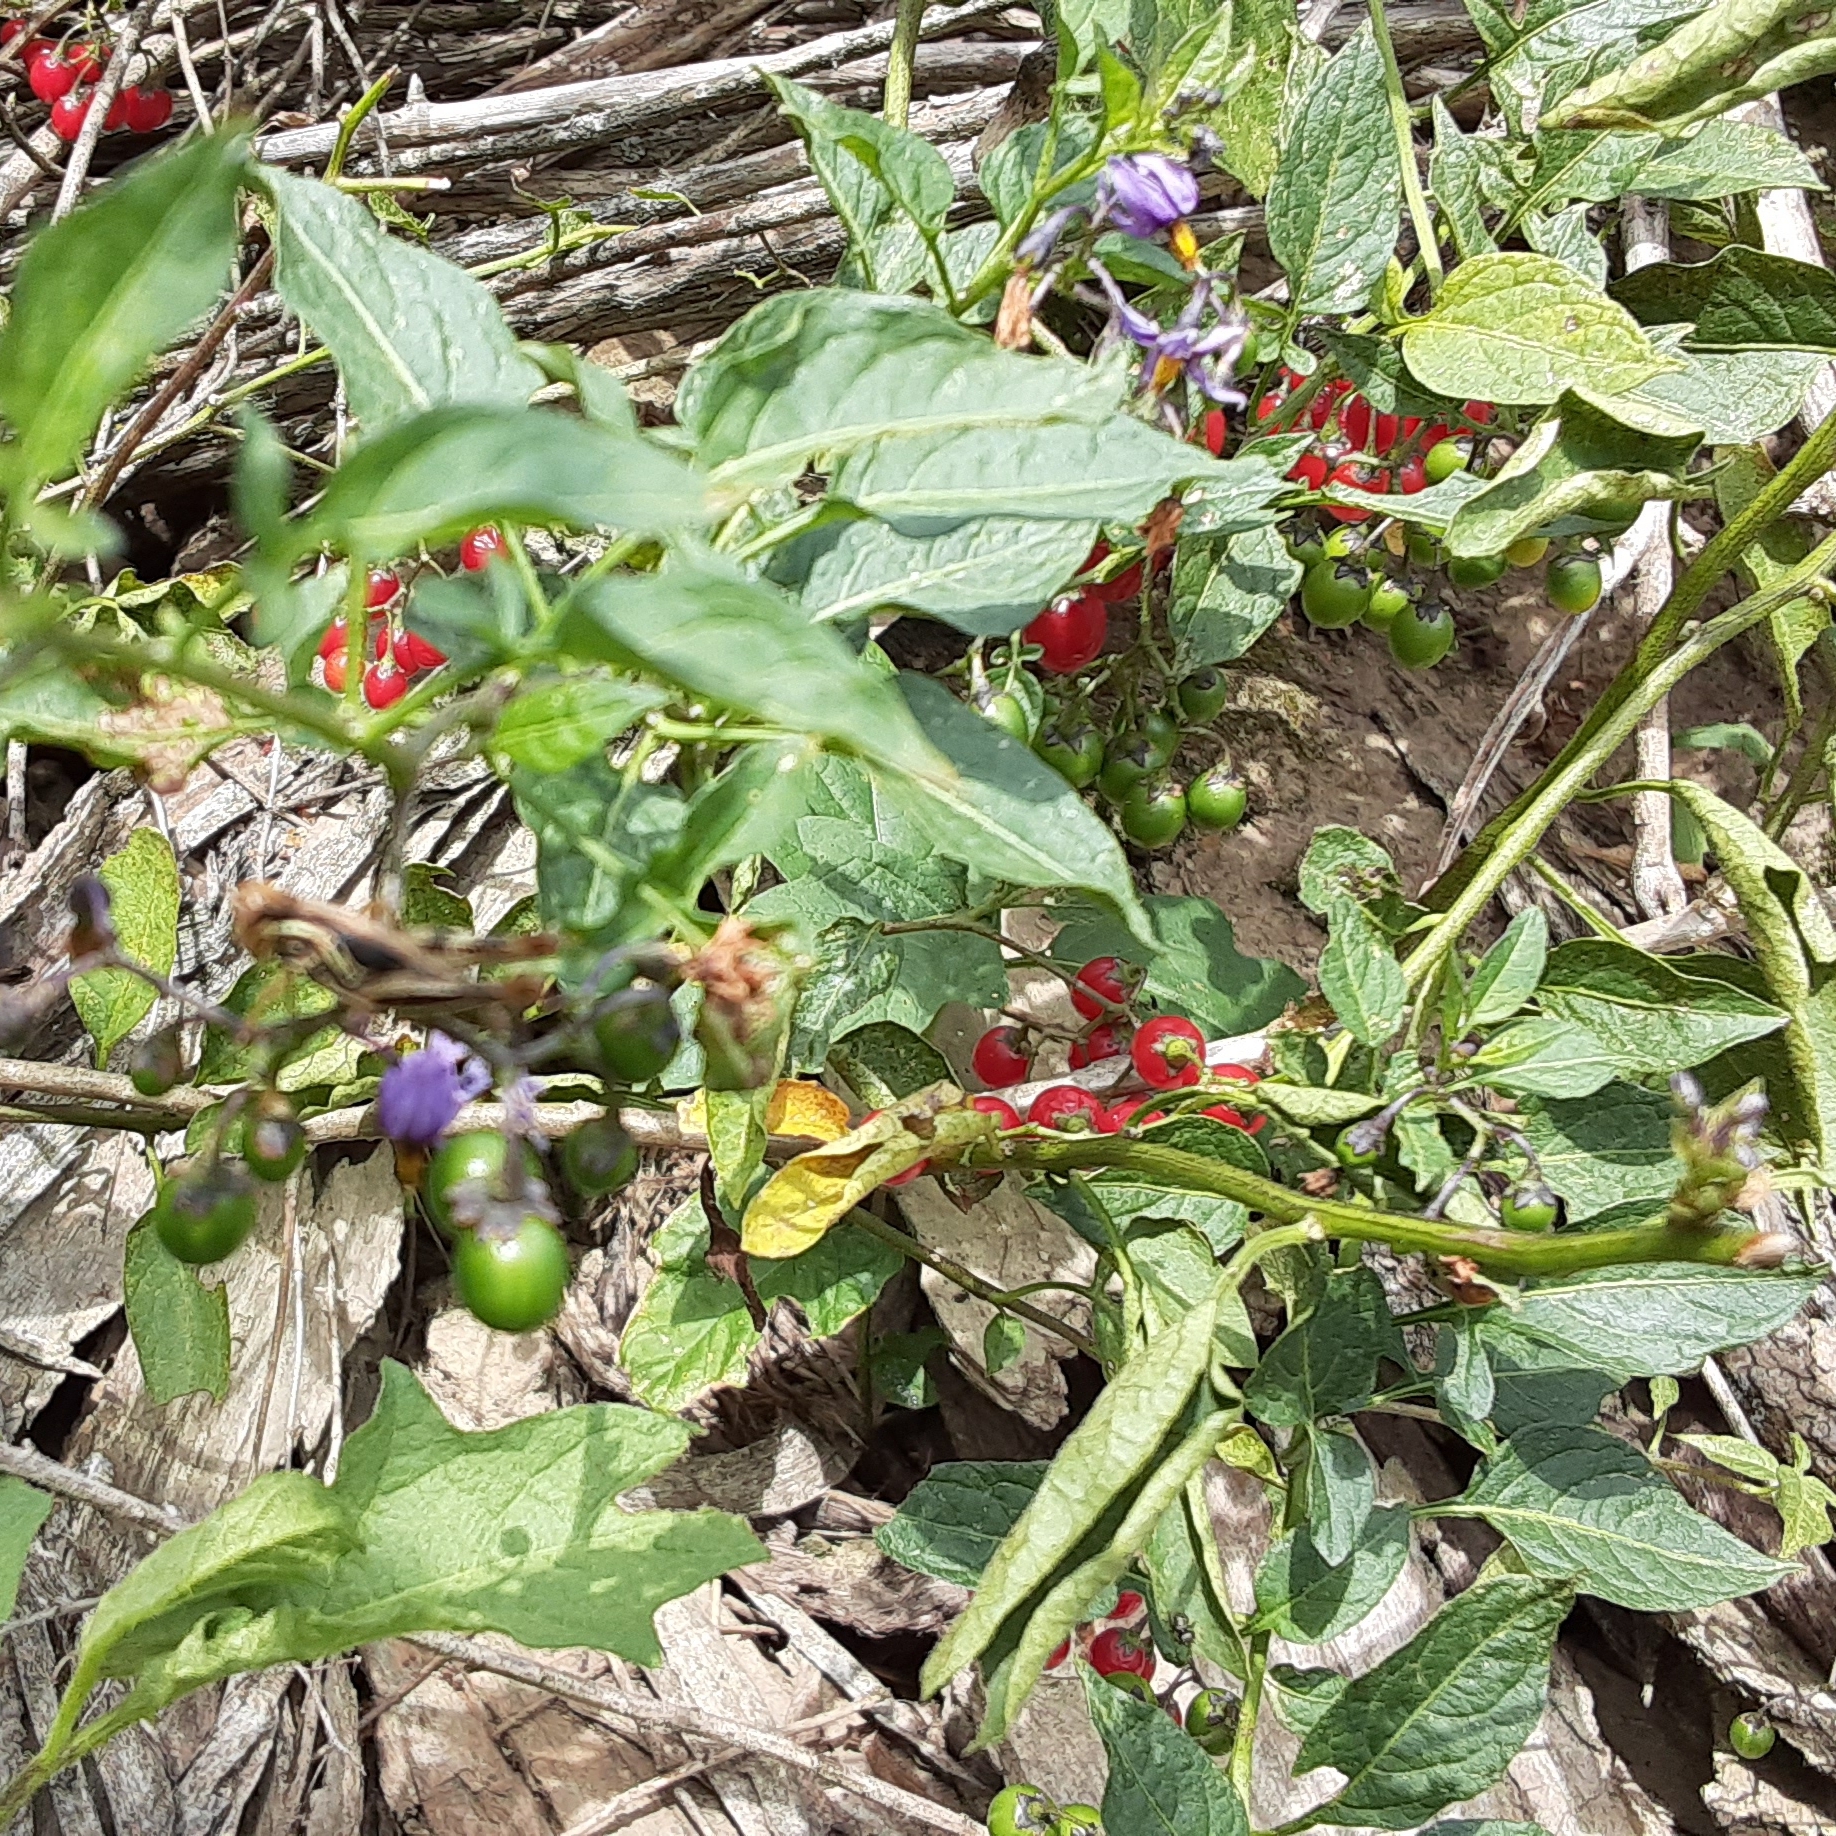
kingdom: Plantae
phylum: Tracheophyta
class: Magnoliopsida
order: Solanales
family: Solanaceae
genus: Solanum
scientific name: Solanum dulcamara
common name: Climbing nightshade
